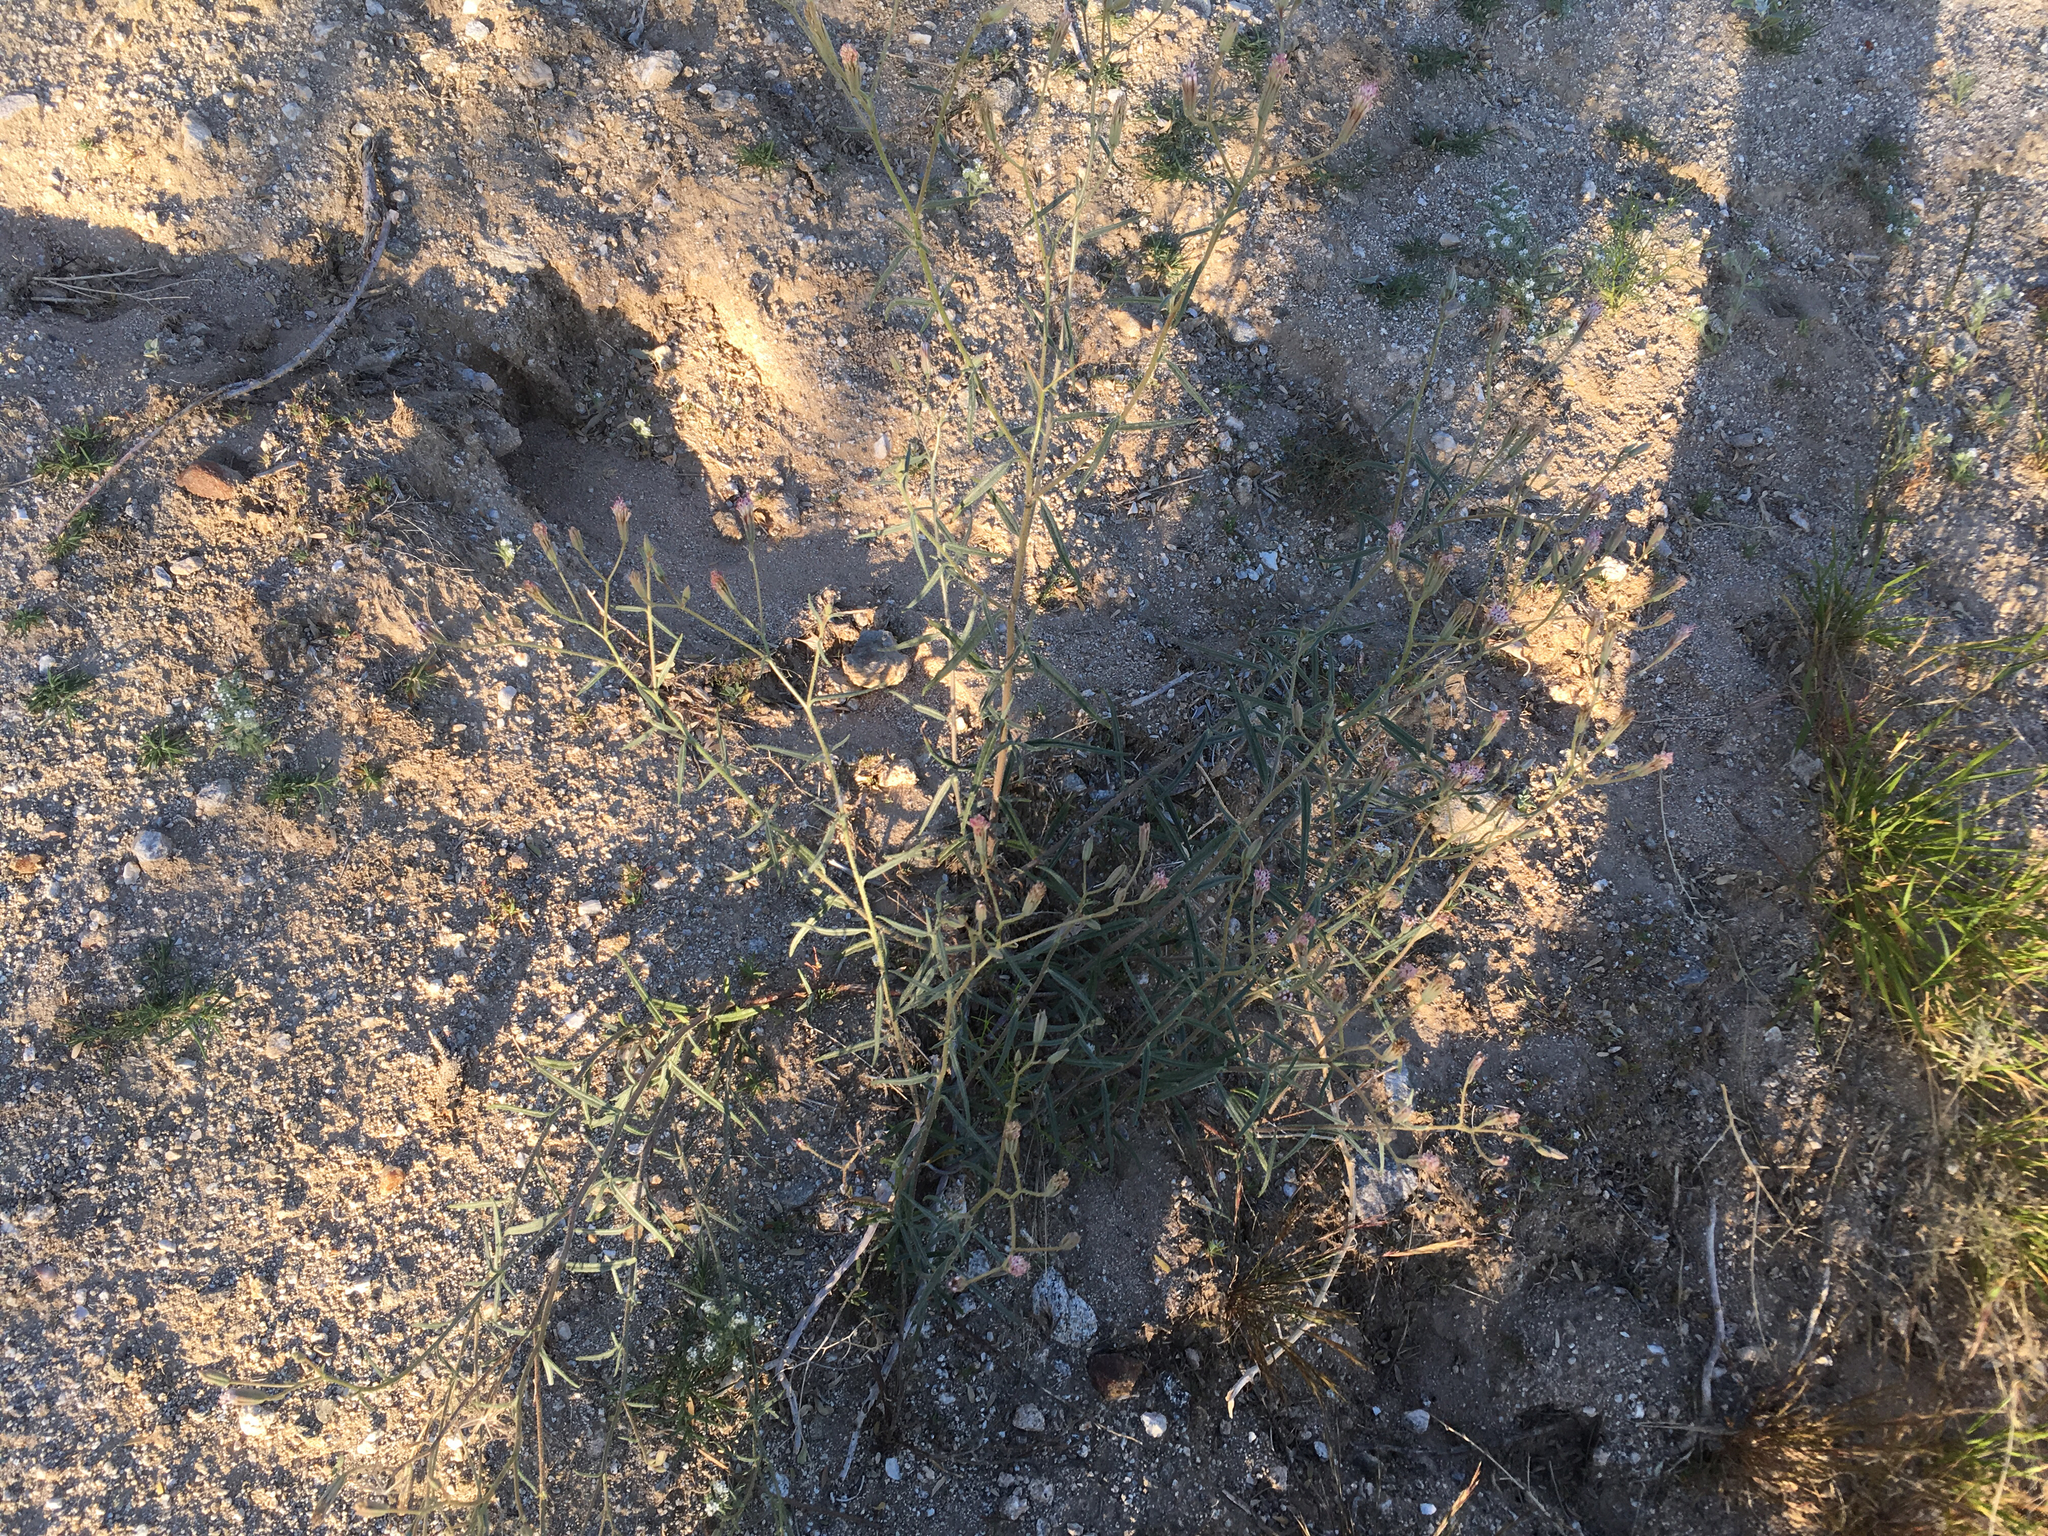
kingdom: Plantae
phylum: Tracheophyta
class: Magnoliopsida
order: Asterales
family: Asteraceae
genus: Palafoxia
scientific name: Palafoxia arida
